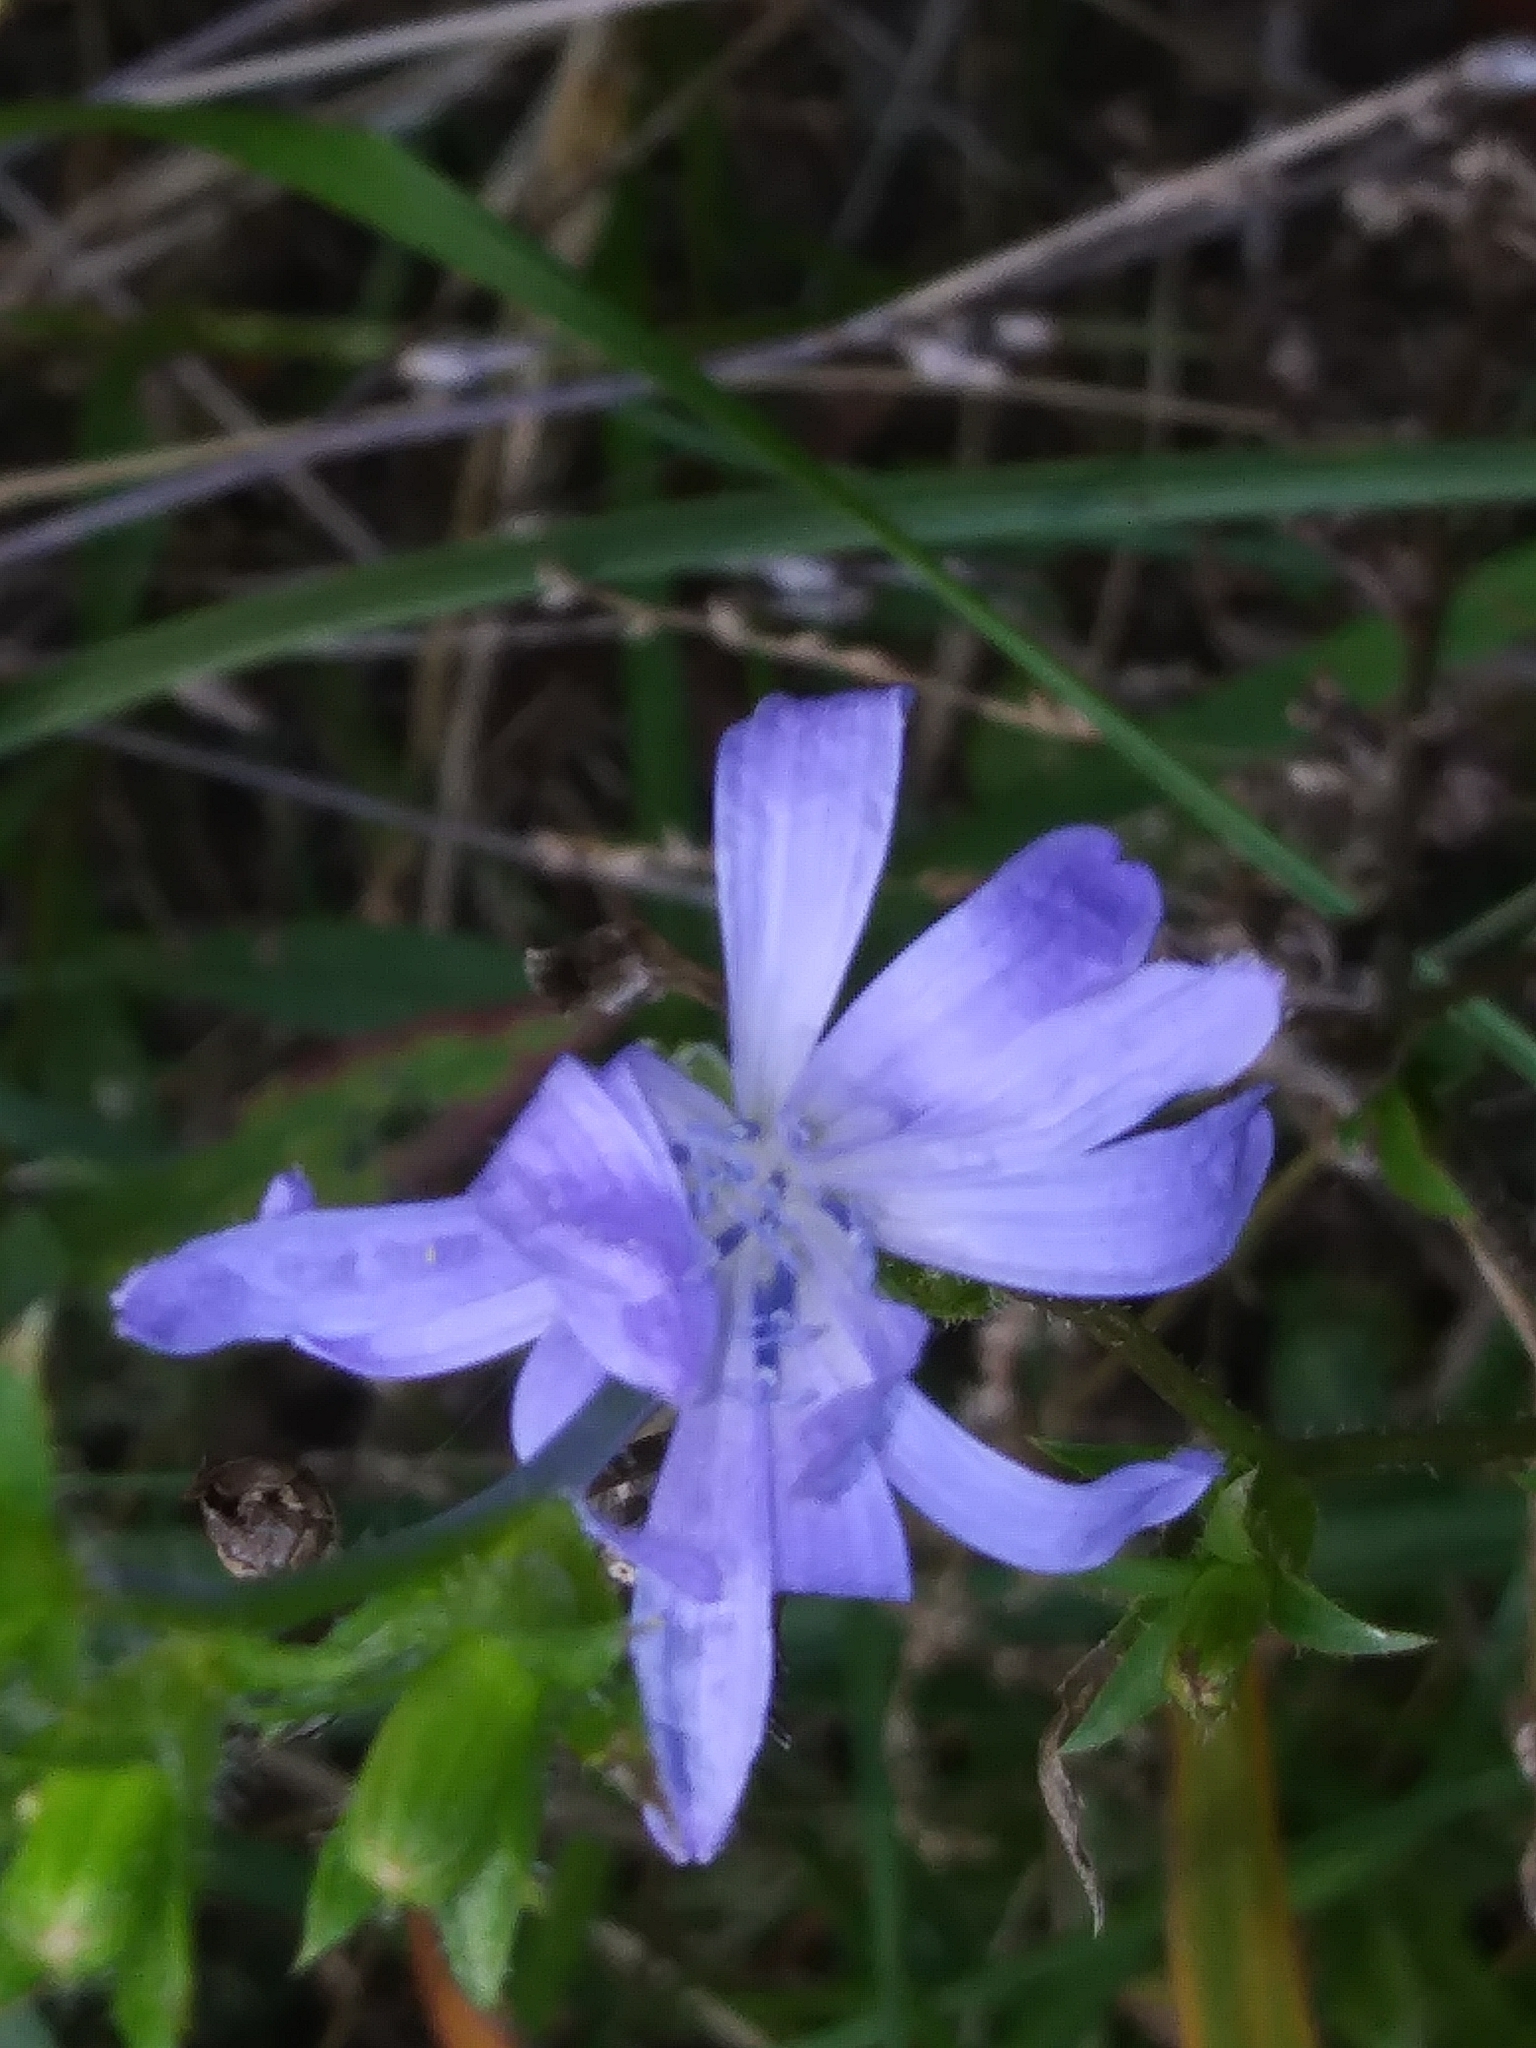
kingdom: Plantae
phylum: Tracheophyta
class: Magnoliopsida
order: Asterales
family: Asteraceae
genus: Cichorium
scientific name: Cichorium intybus
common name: Chicory
